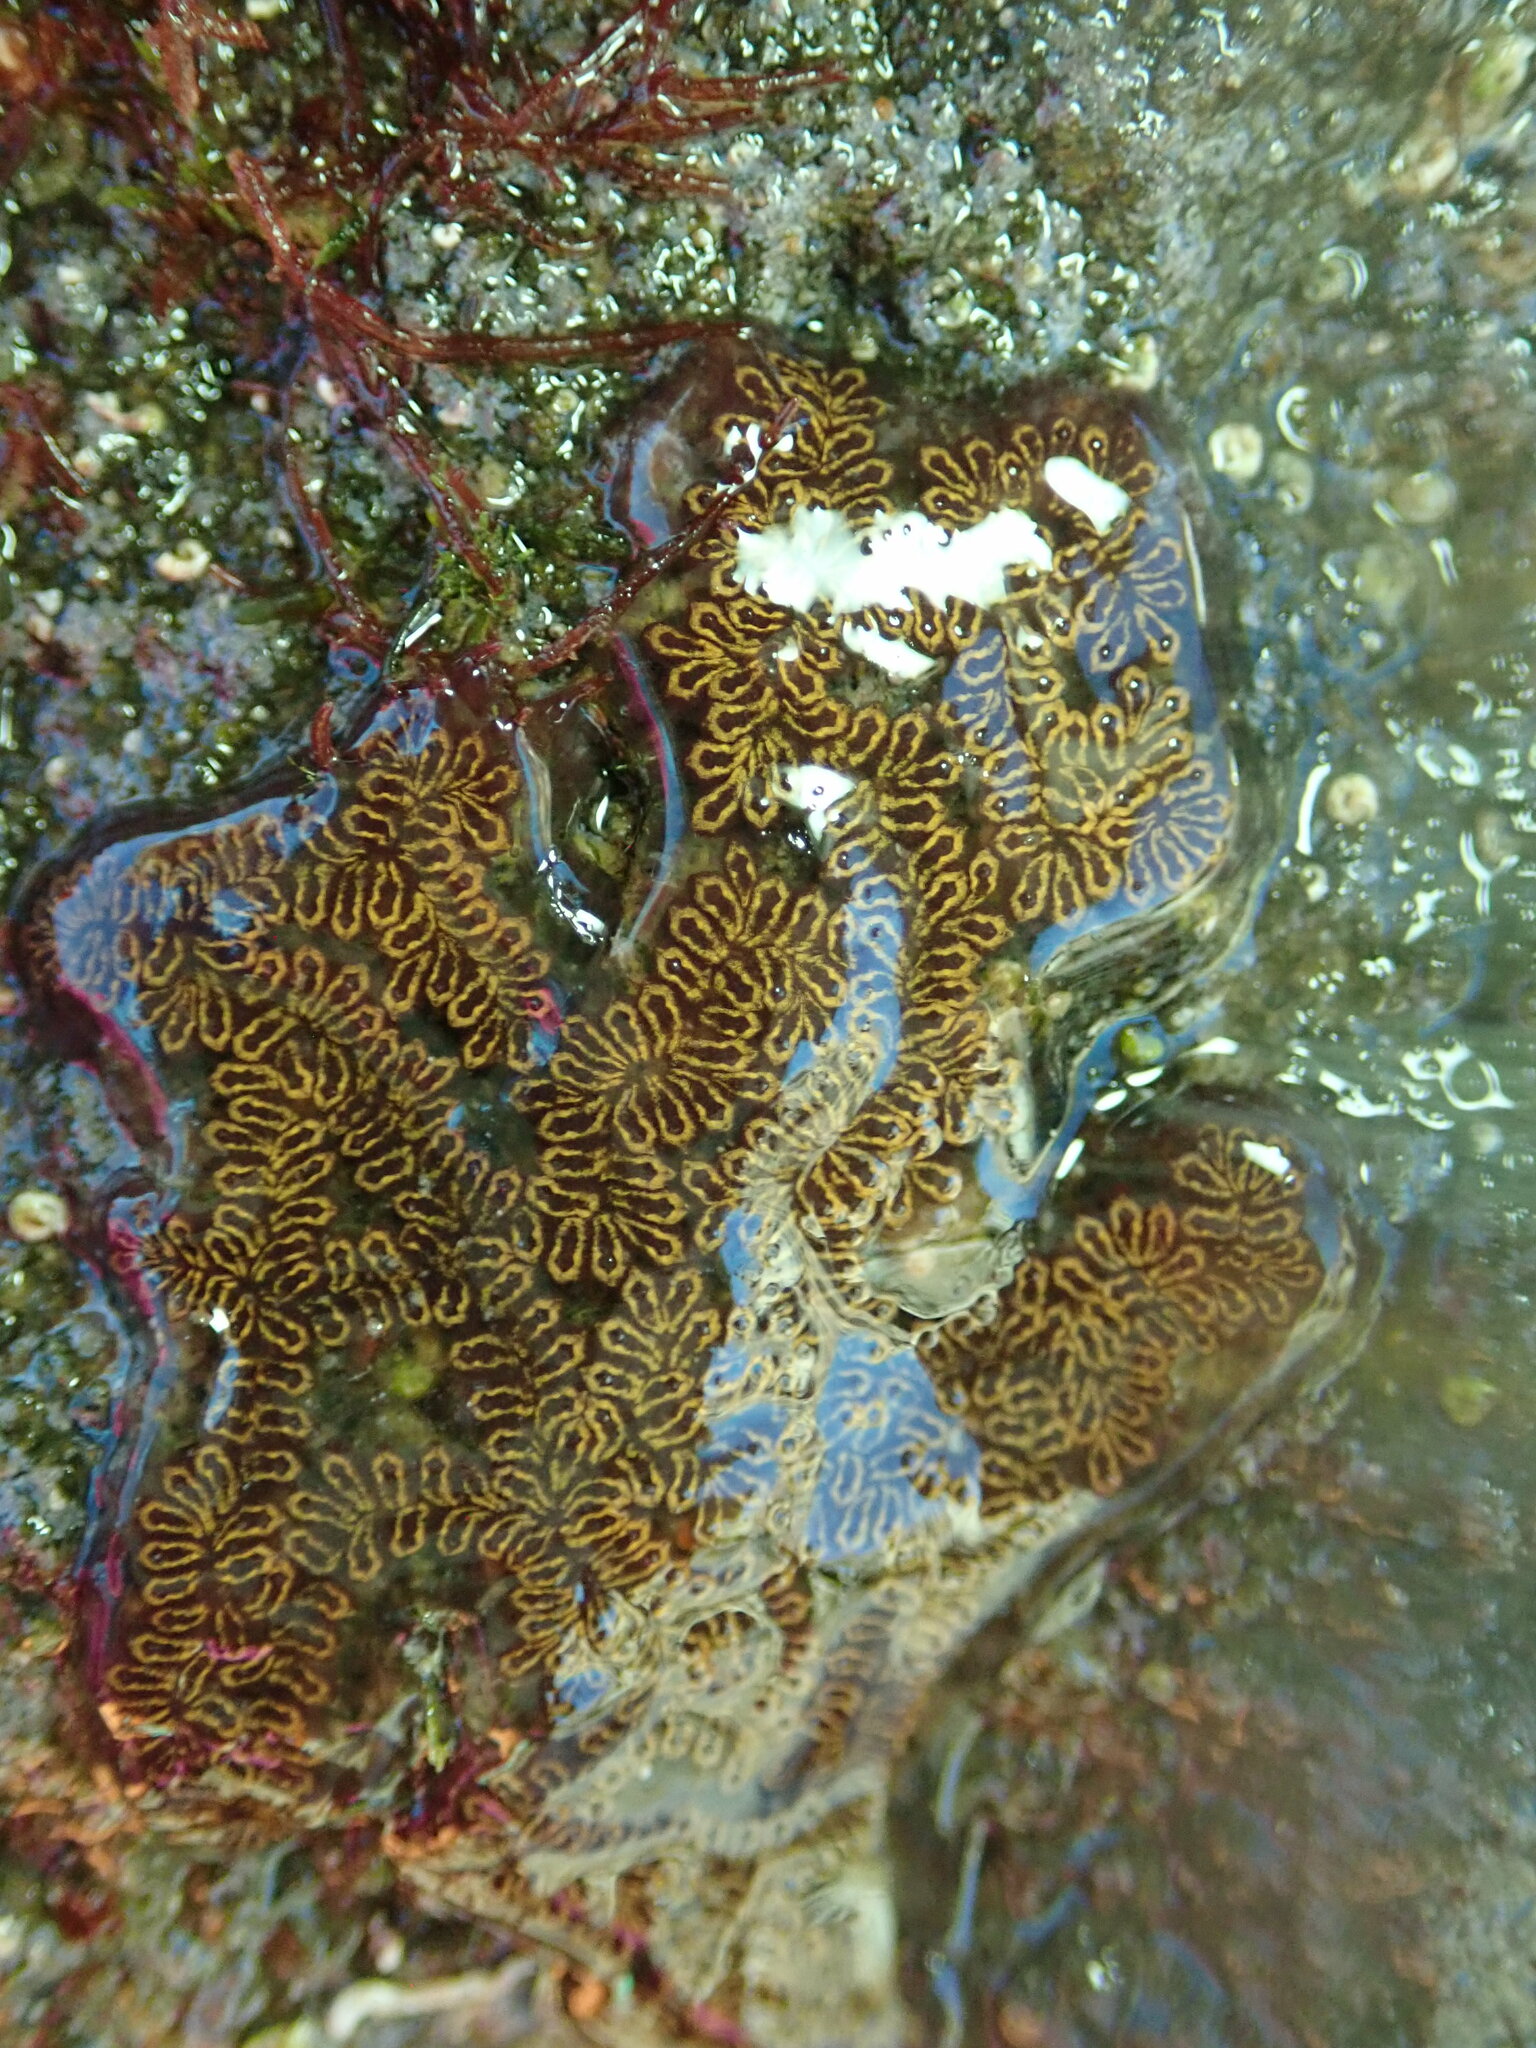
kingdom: Animalia
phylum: Chordata
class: Ascidiacea
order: Stolidobranchia
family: Styelidae
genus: Botrylloides
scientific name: Botrylloides niger
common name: Black synascidia
